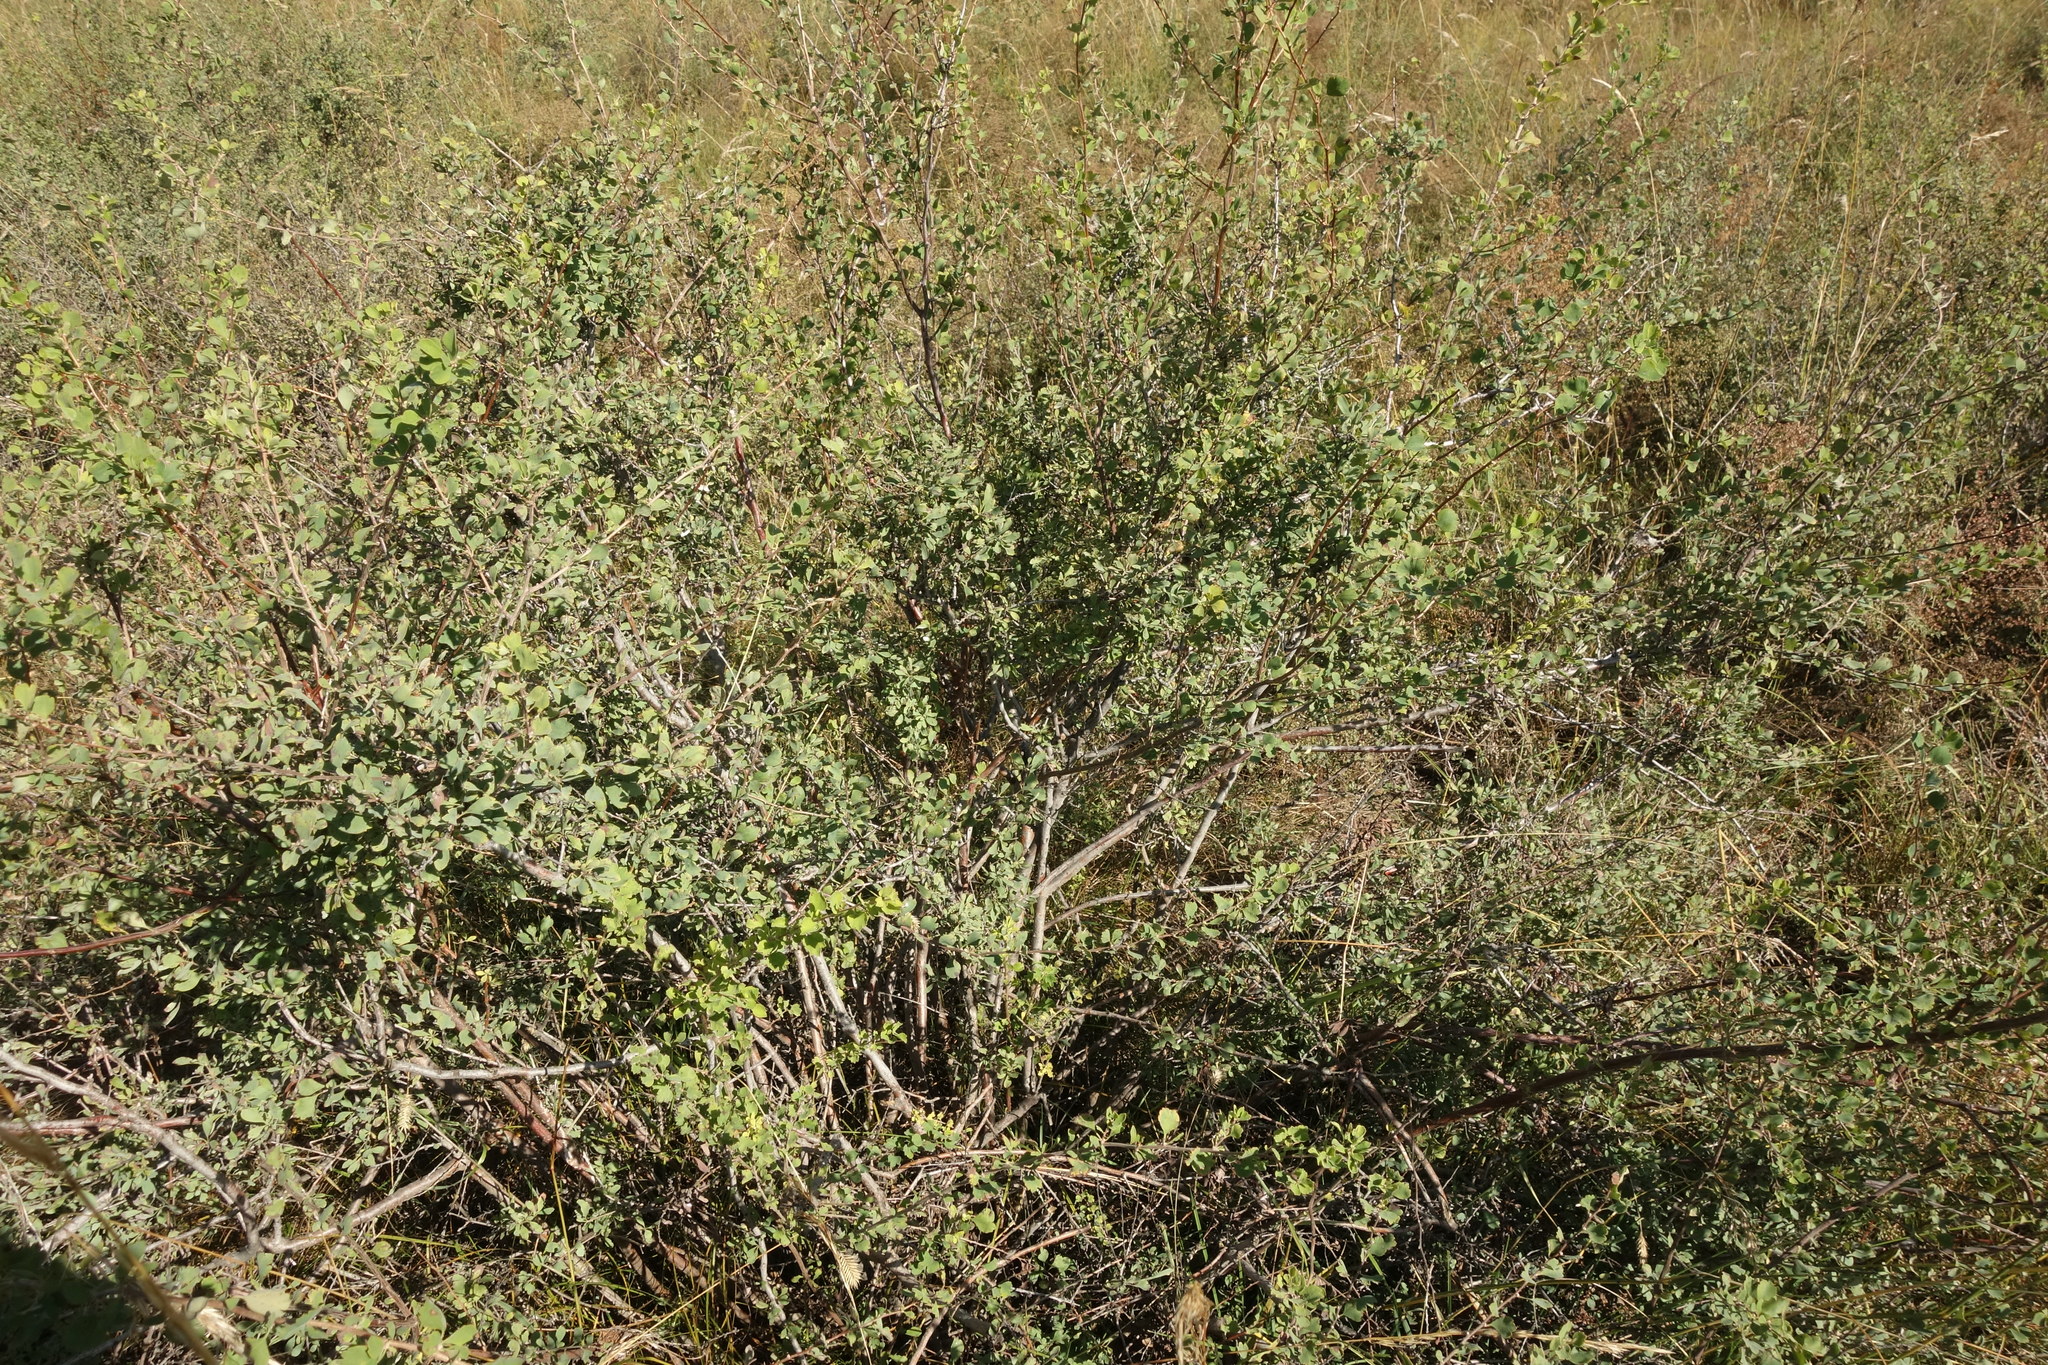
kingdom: Plantae
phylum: Tracheophyta
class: Magnoliopsida
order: Rosales
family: Rosaceae
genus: Spiraea
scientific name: Spiraea aquilegifolia
